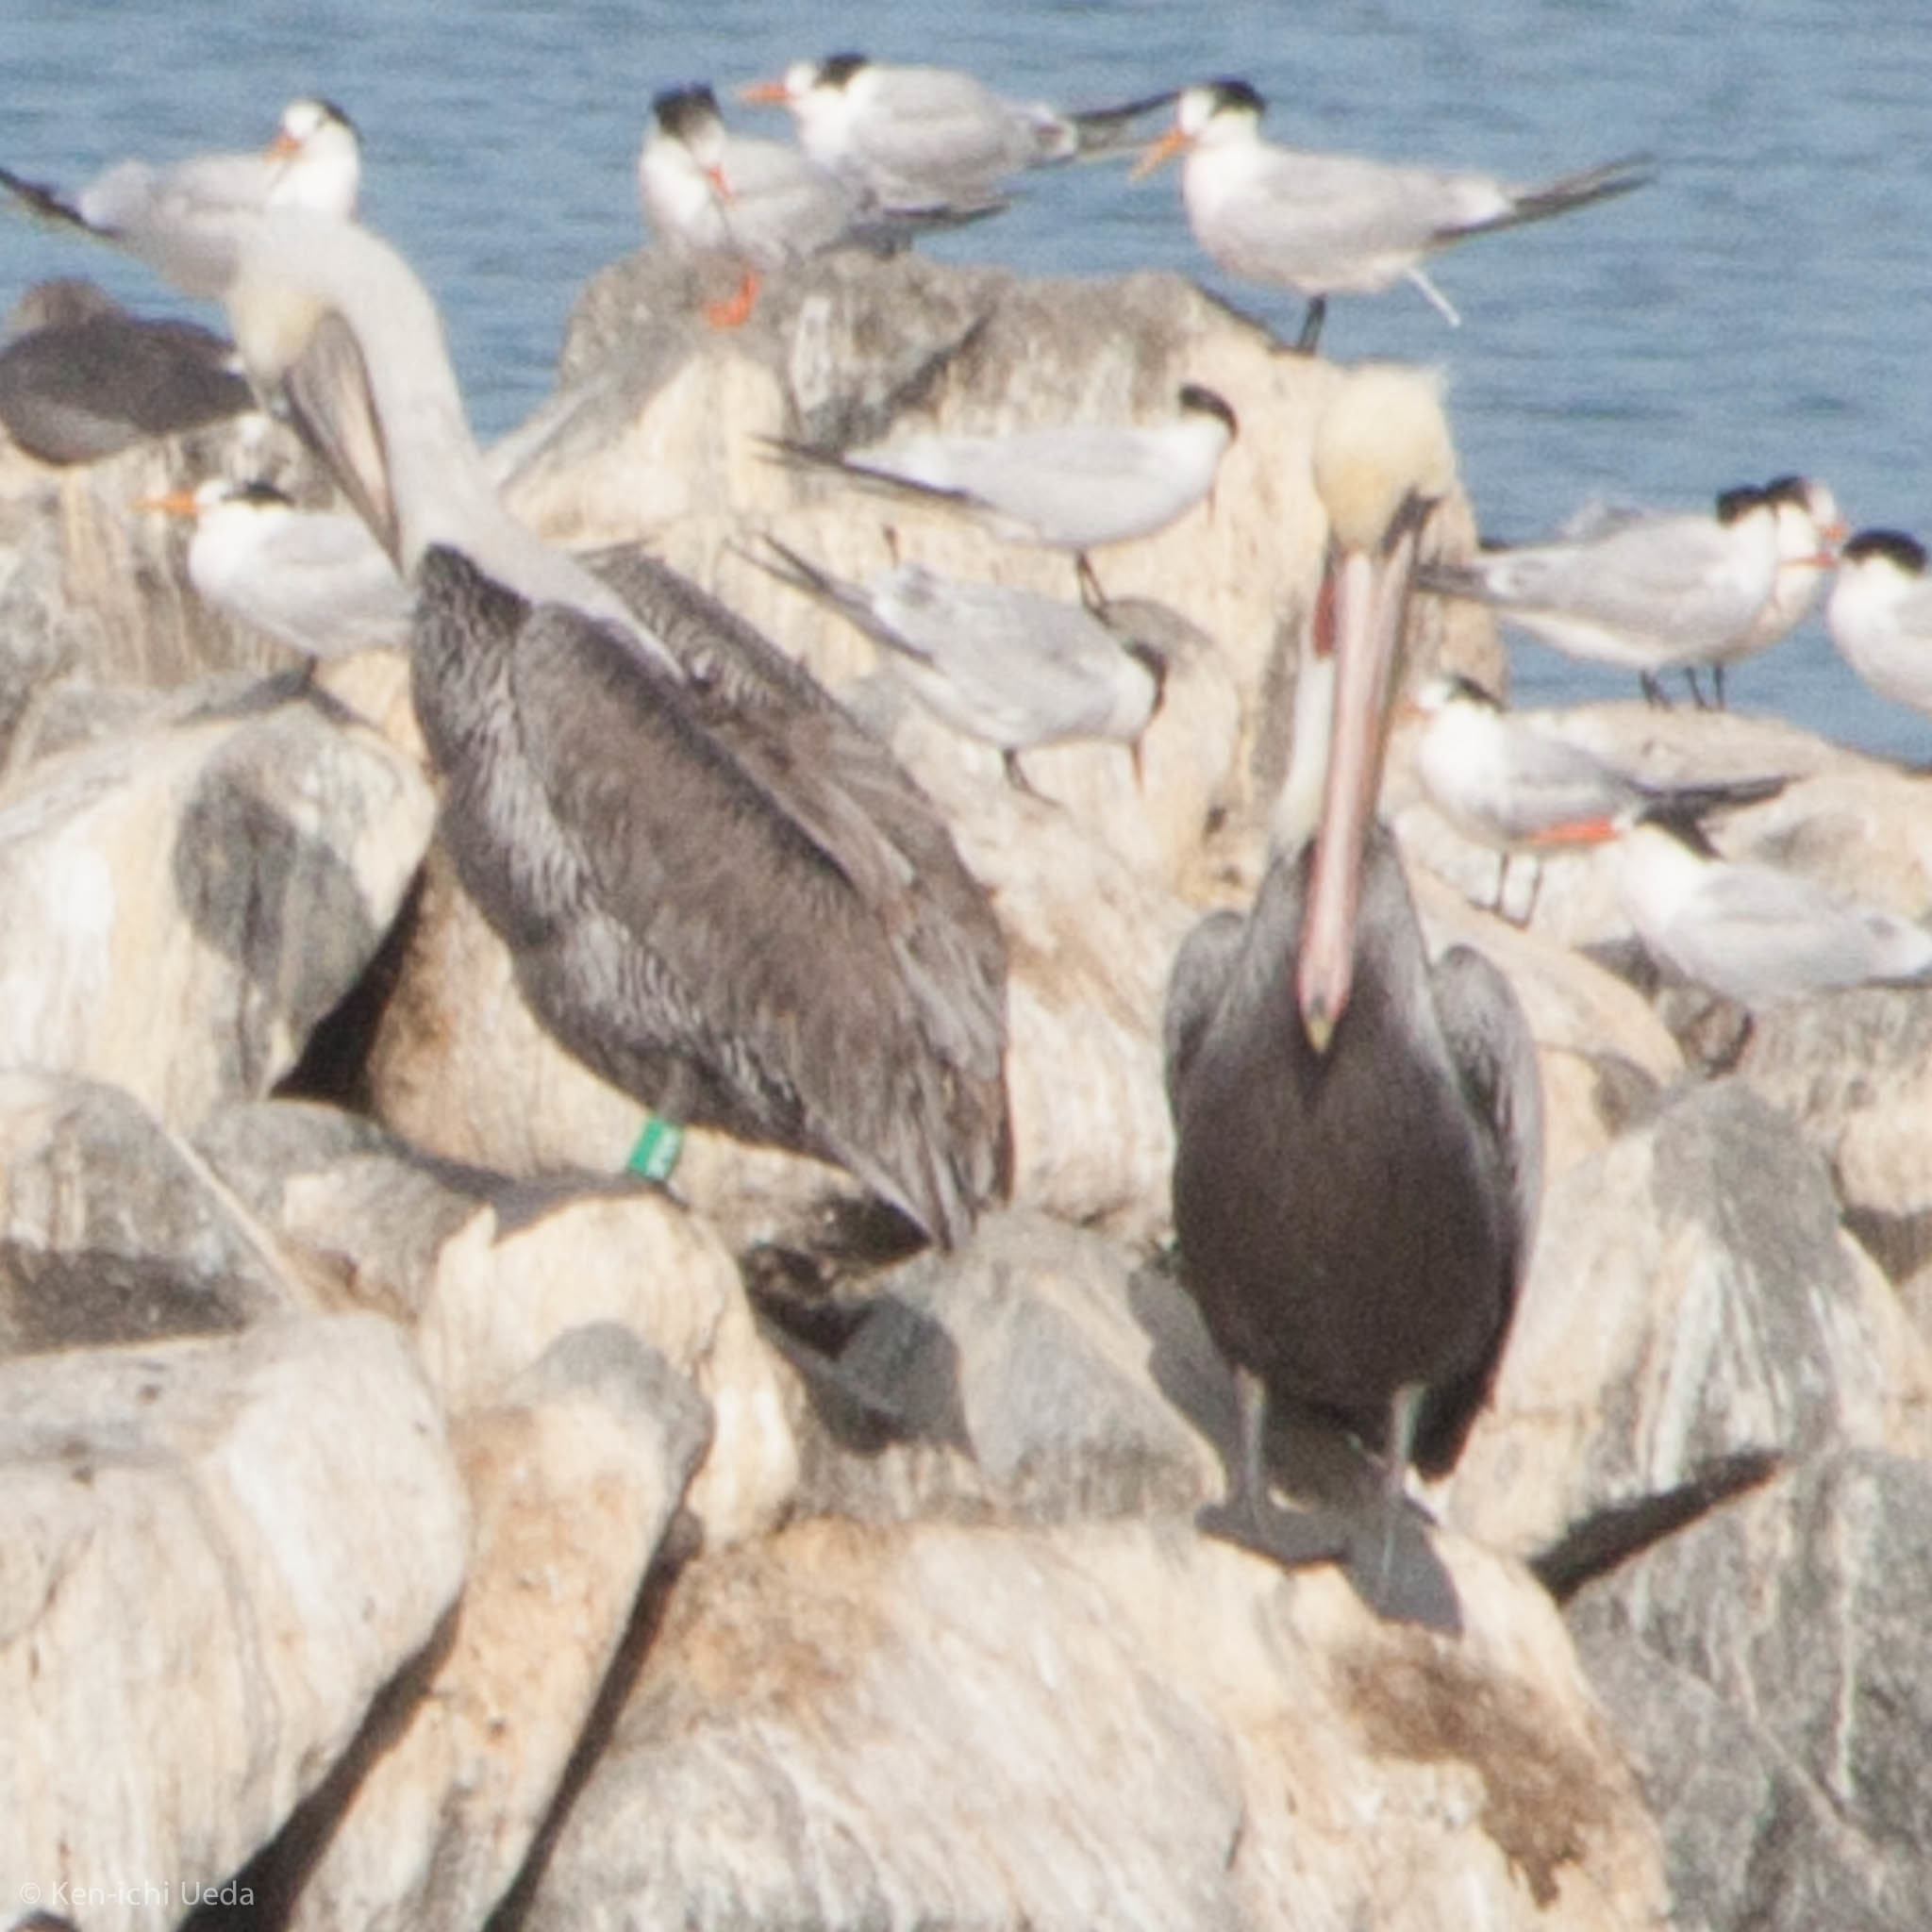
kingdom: Animalia
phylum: Chordata
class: Aves
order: Pelecaniformes
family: Pelecanidae
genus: Pelecanus
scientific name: Pelecanus occidentalis
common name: Brown pelican
